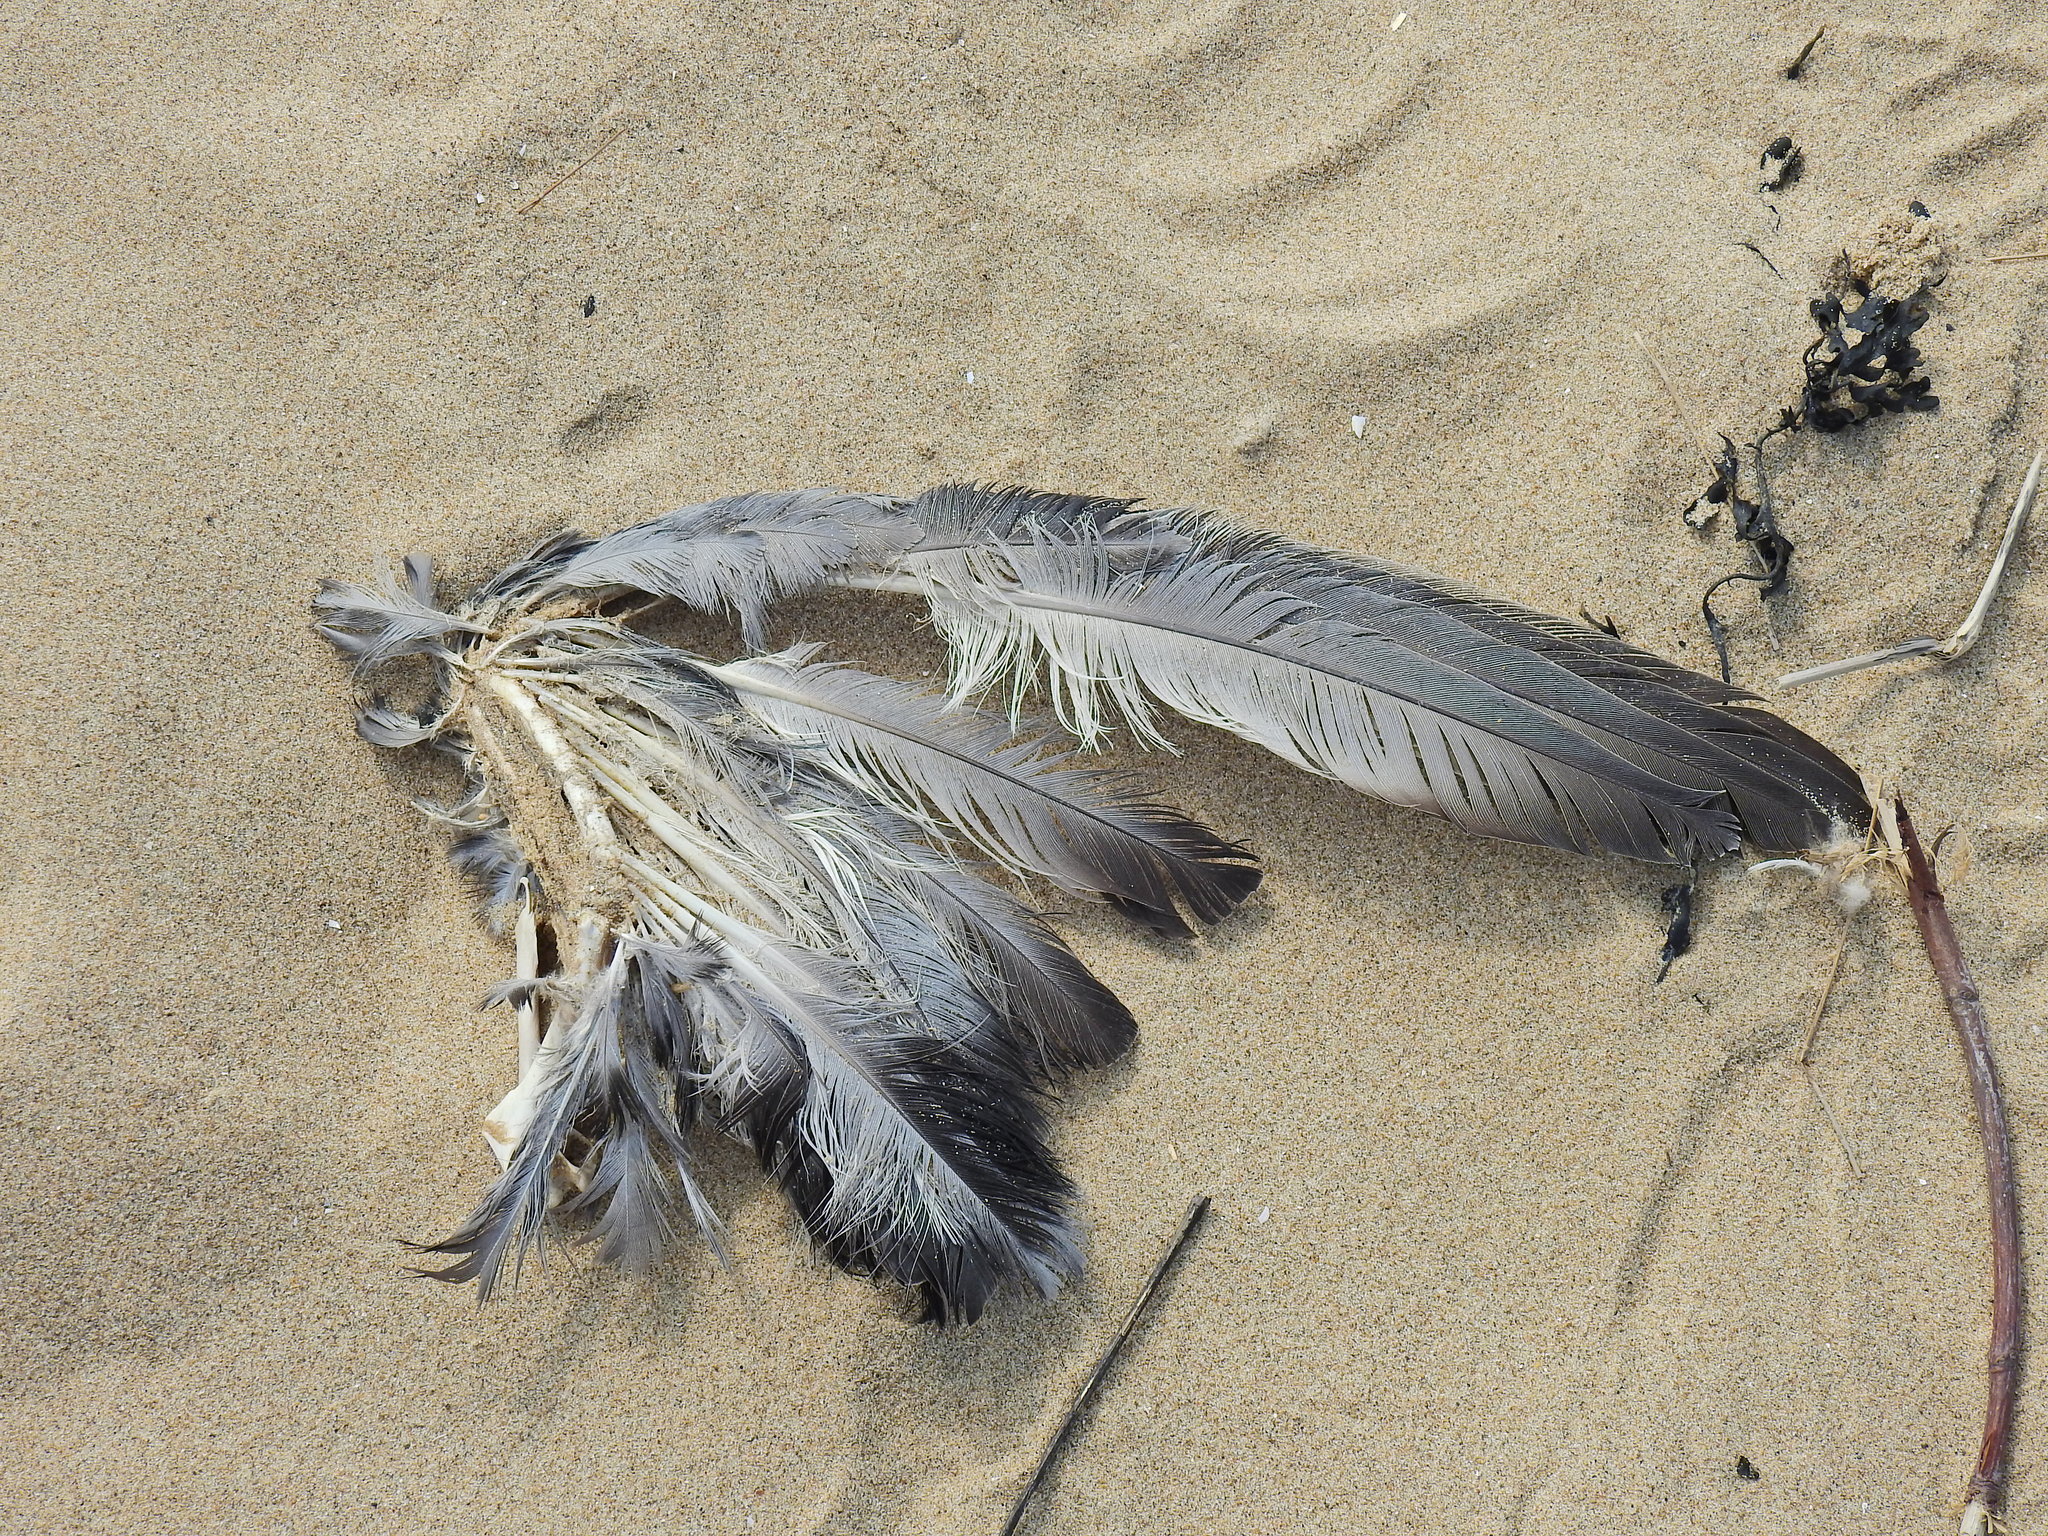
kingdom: Animalia
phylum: Chordata
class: Aves
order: Columbiformes
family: Columbidae
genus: Columba
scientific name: Columba livia
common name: Rock pigeon
